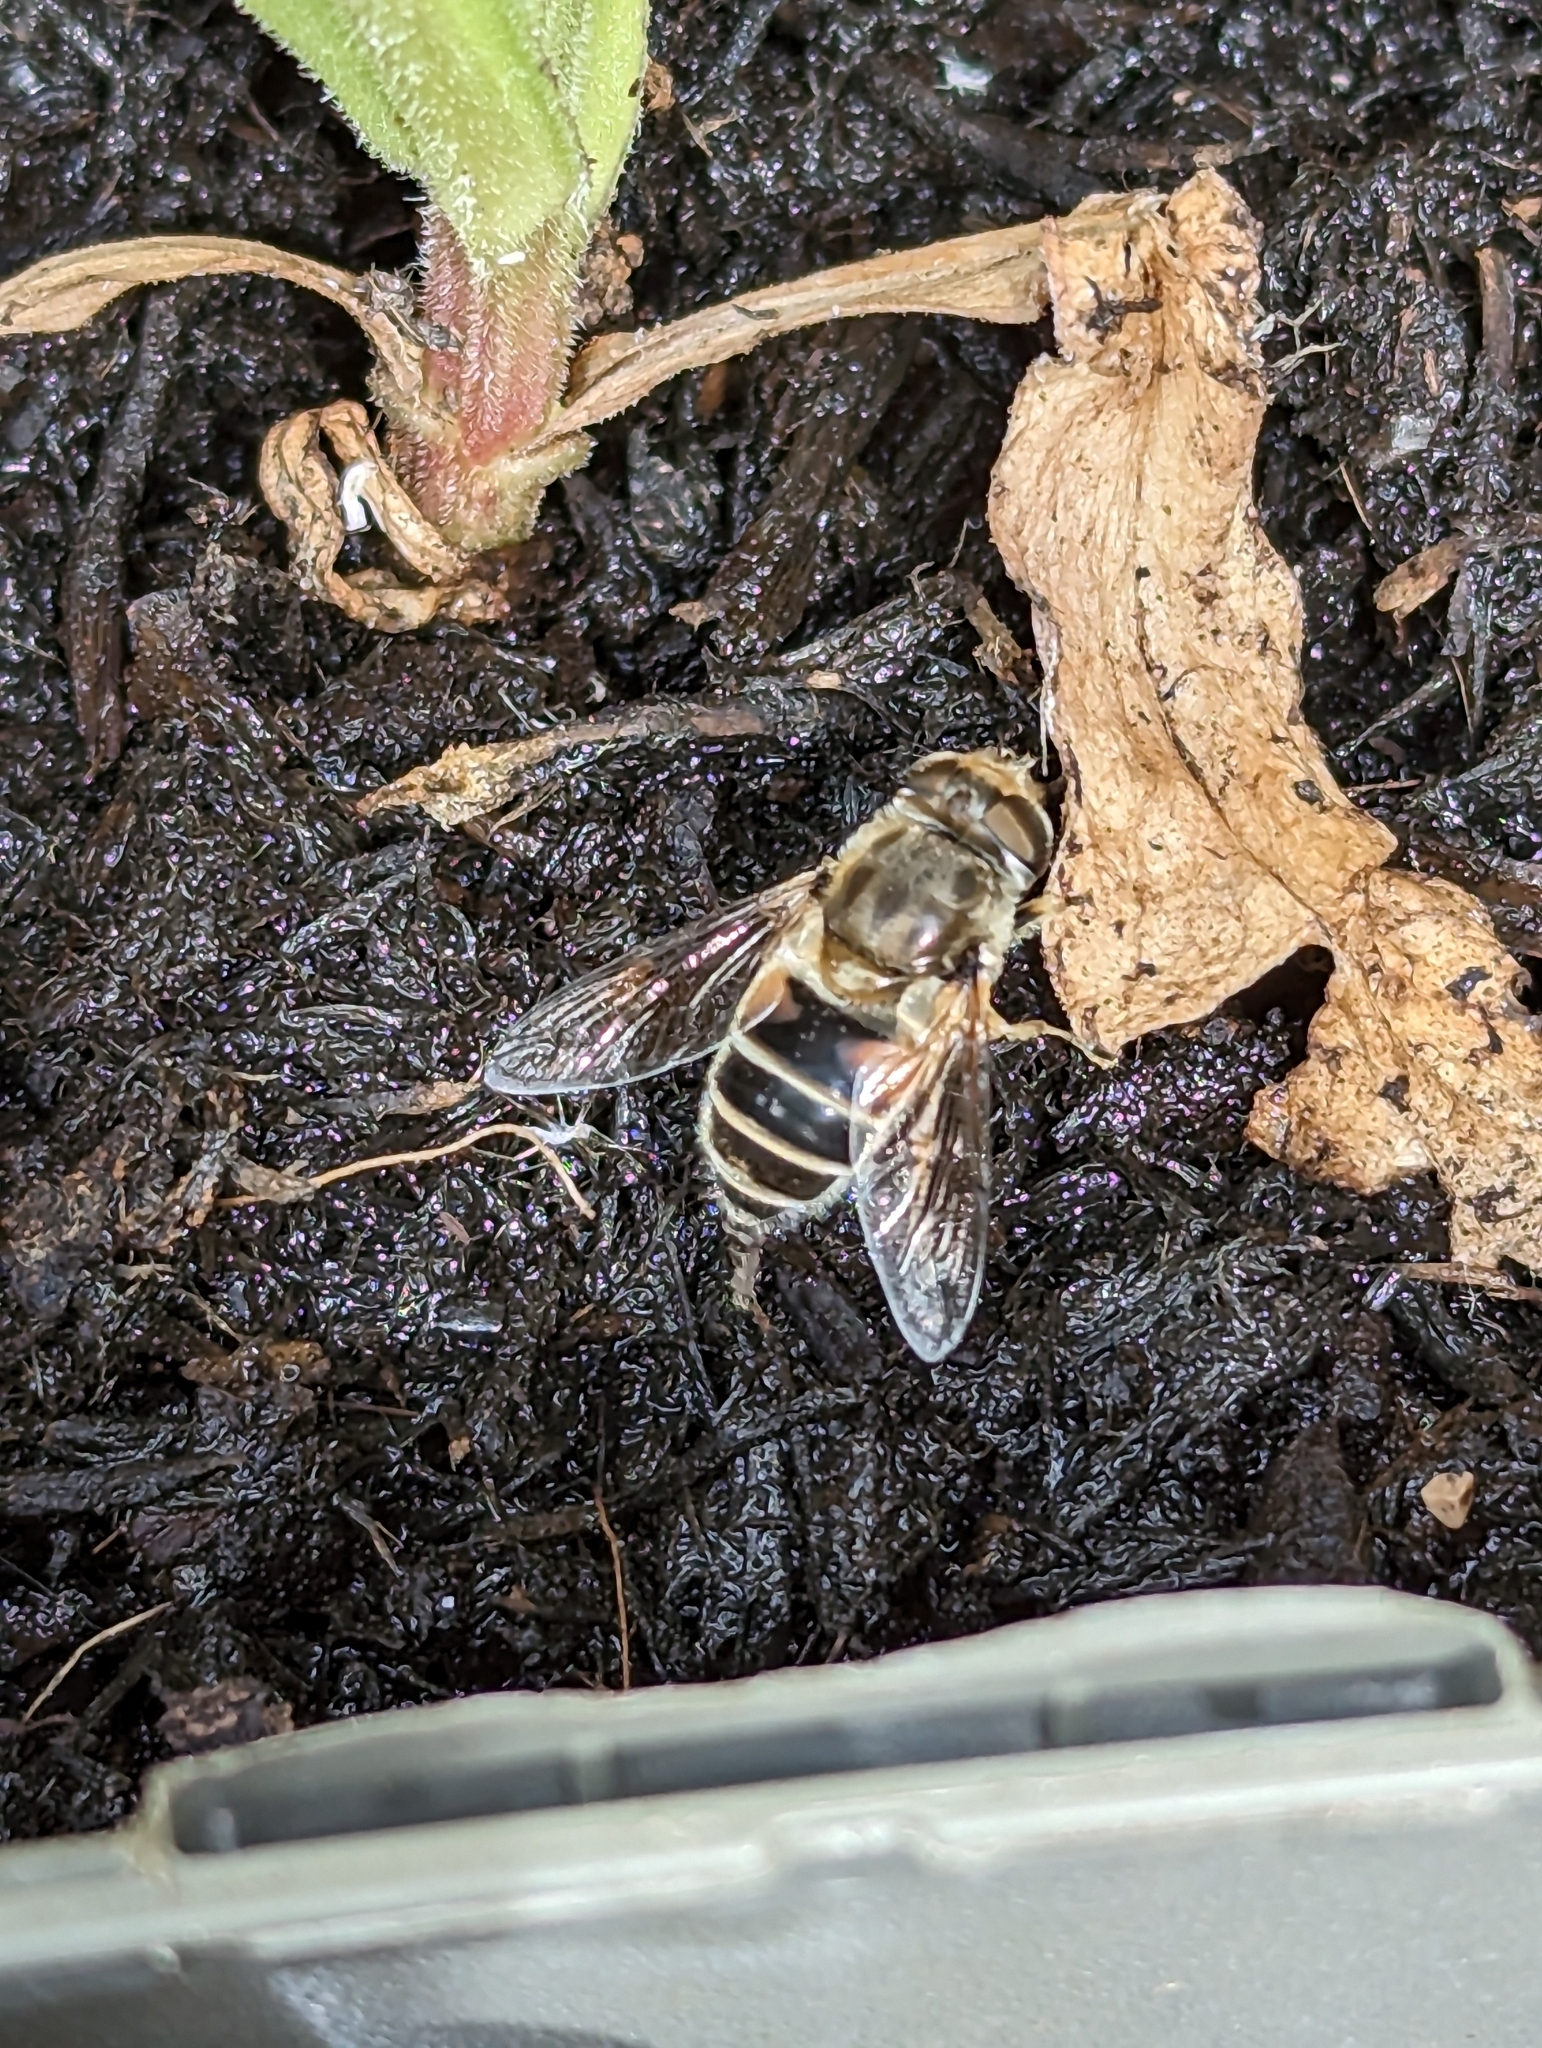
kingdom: Animalia
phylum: Arthropoda
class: Insecta
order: Diptera
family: Syrphidae
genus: Eristalis
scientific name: Eristalis arbustorum
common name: Hover fly
